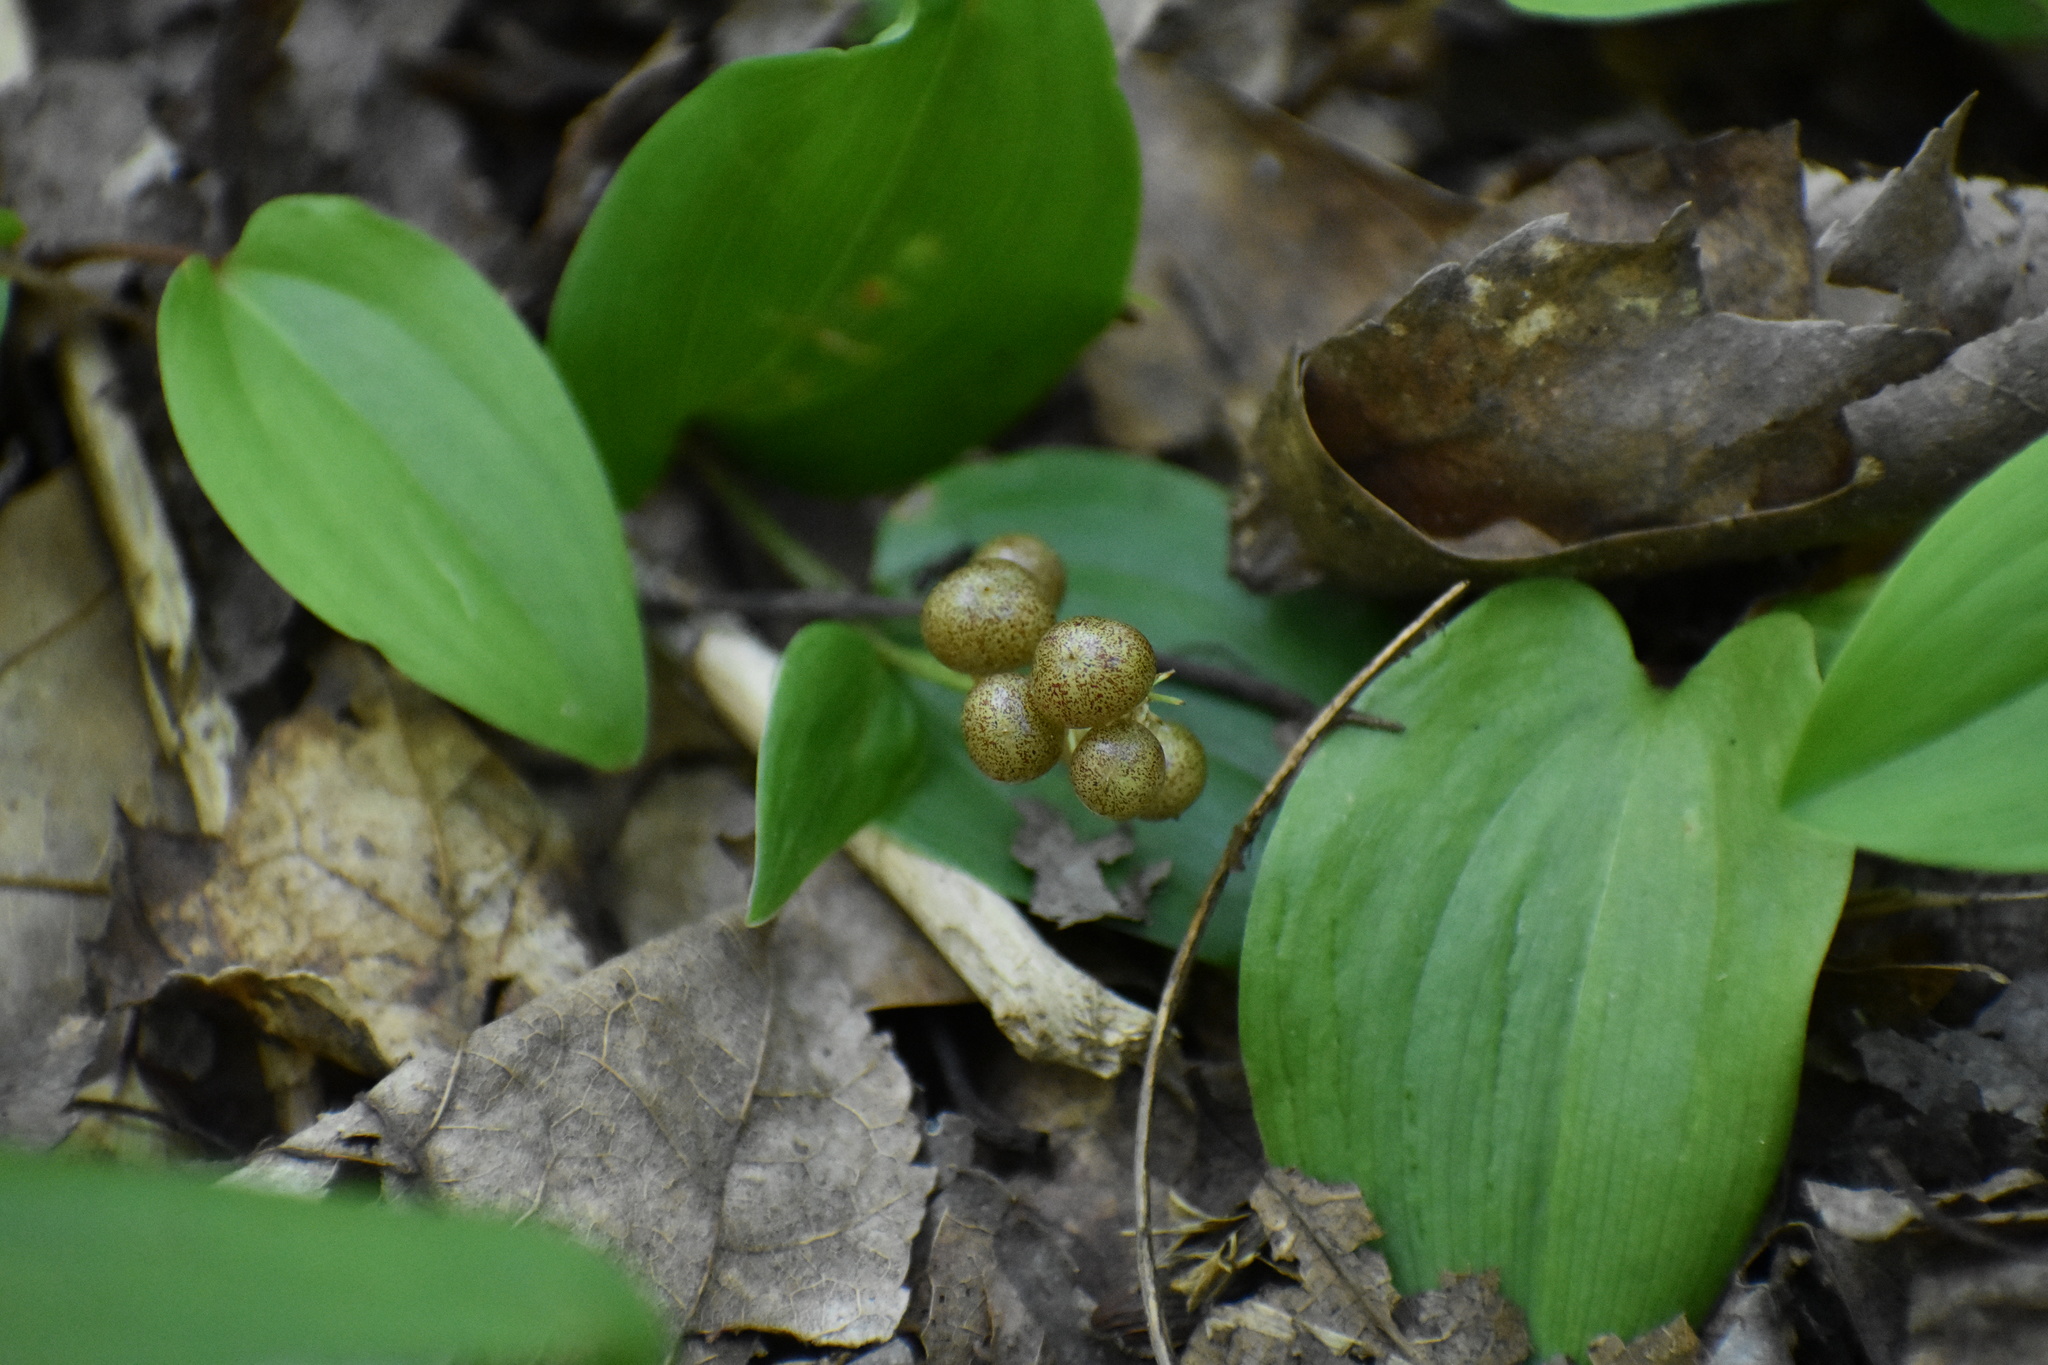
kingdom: Plantae
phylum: Tracheophyta
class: Liliopsida
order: Asparagales
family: Asparagaceae
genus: Maianthemum
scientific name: Maianthemum canadense
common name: False lily-of-the-valley
